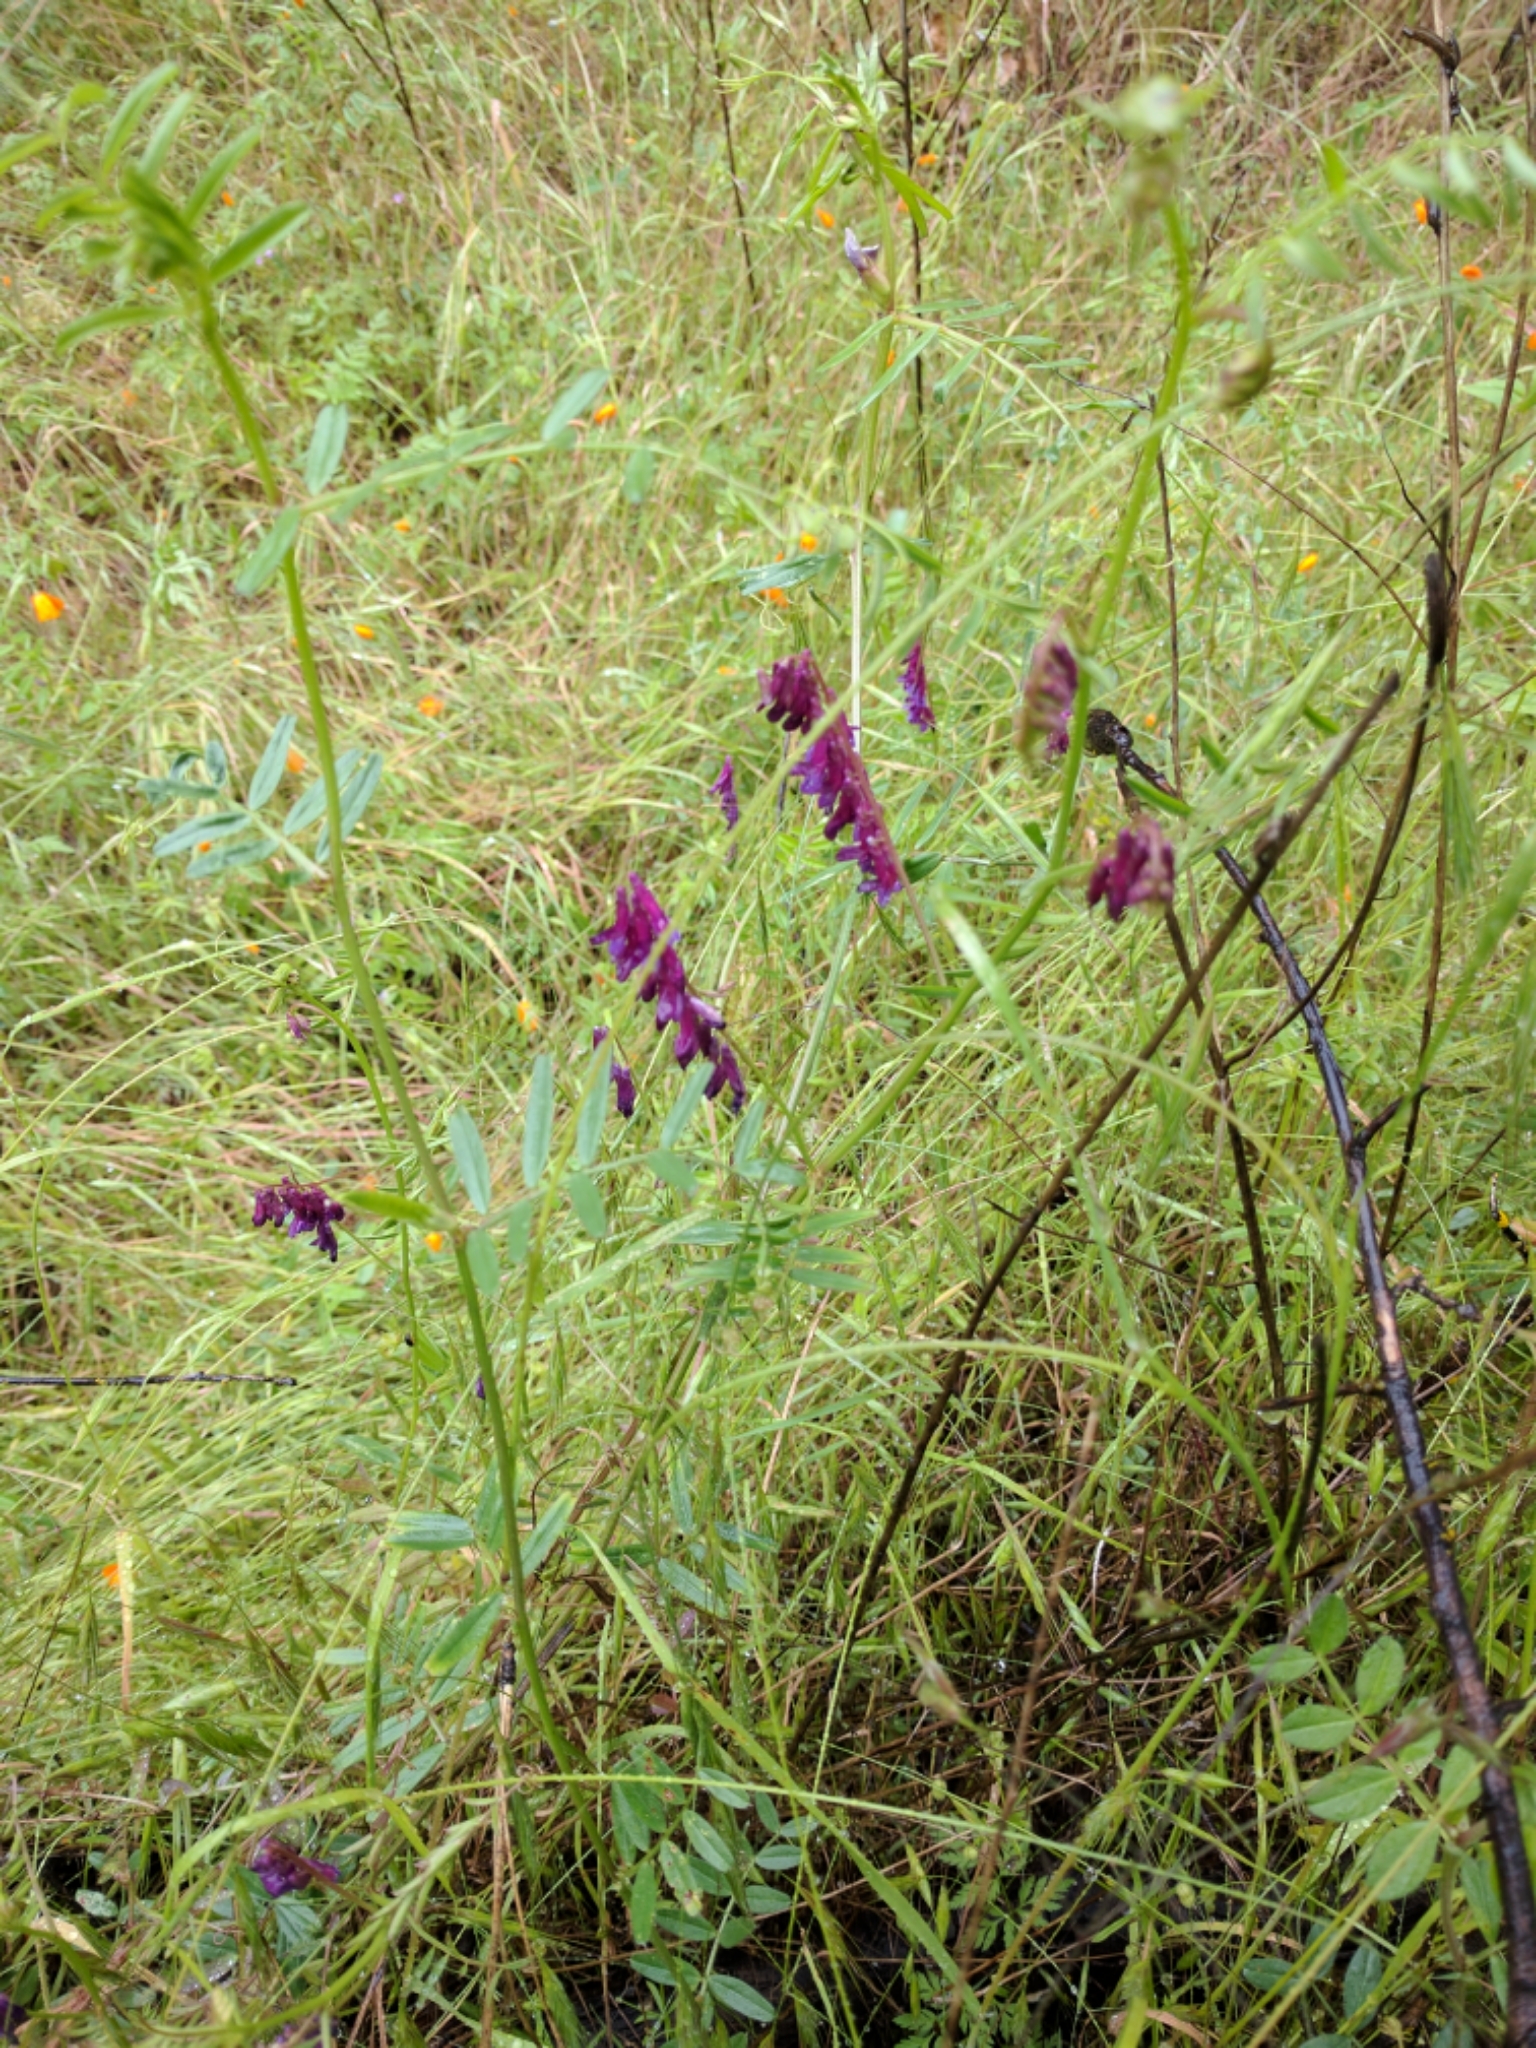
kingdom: Plantae
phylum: Tracheophyta
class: Magnoliopsida
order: Fabales
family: Fabaceae
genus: Vicia
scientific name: Vicia villosa
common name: Fodder vetch
